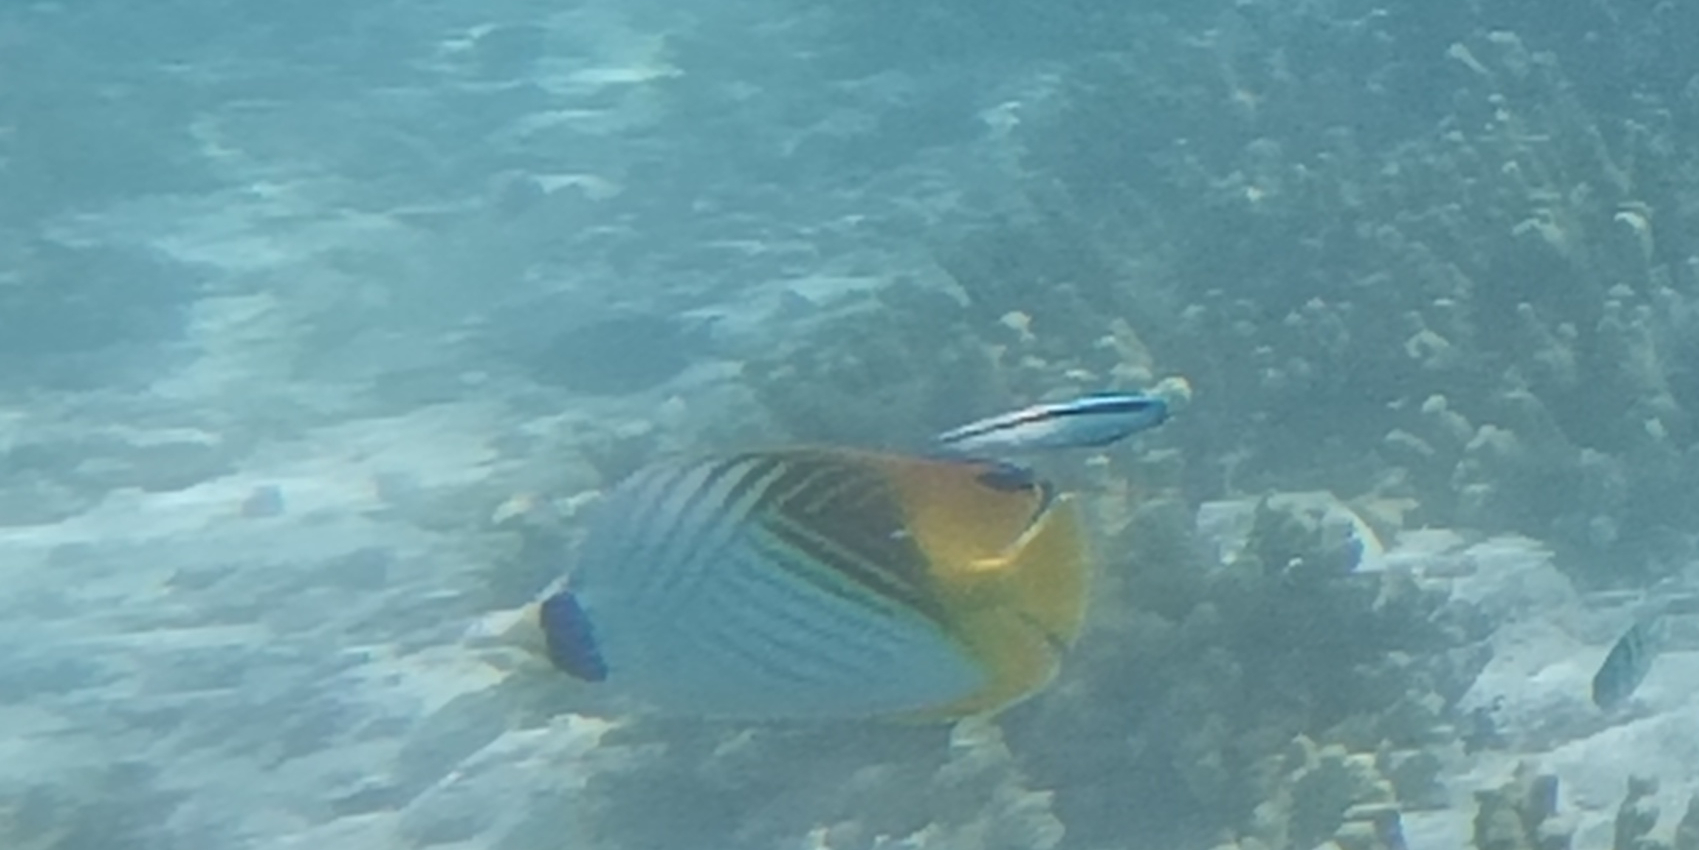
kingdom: Animalia
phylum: Chordata
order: Perciformes
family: Chaetodontidae
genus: Chaetodon
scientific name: Chaetodon auriga
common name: Threadfin butterflyfish
